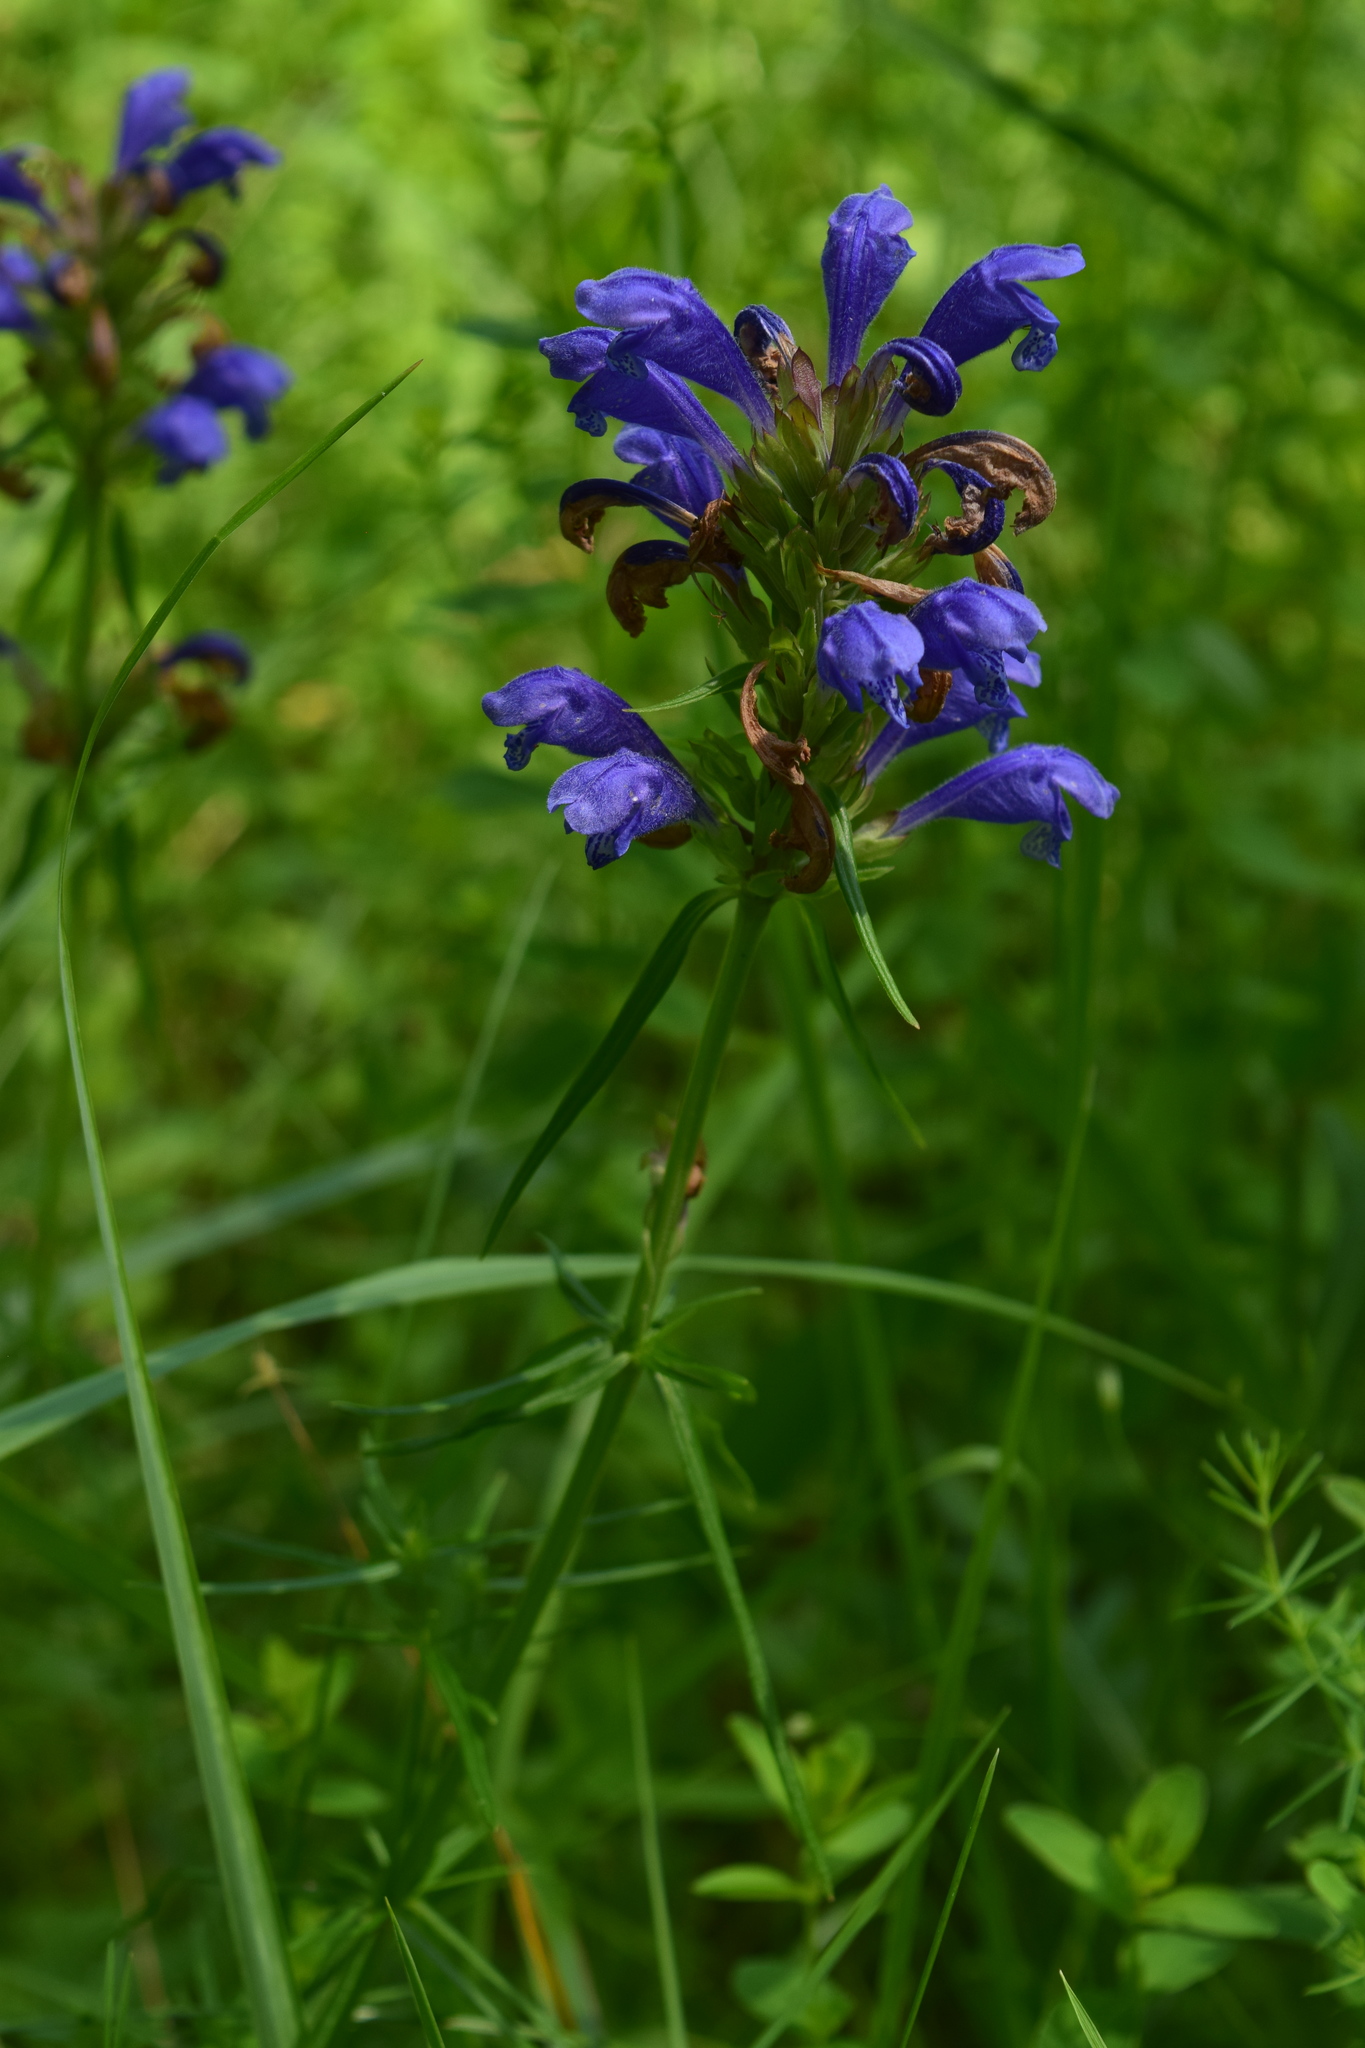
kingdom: Plantae
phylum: Tracheophyta
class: Magnoliopsida
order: Lamiales
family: Lamiaceae
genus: Dracocephalum
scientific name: Dracocephalum ruyschiana
